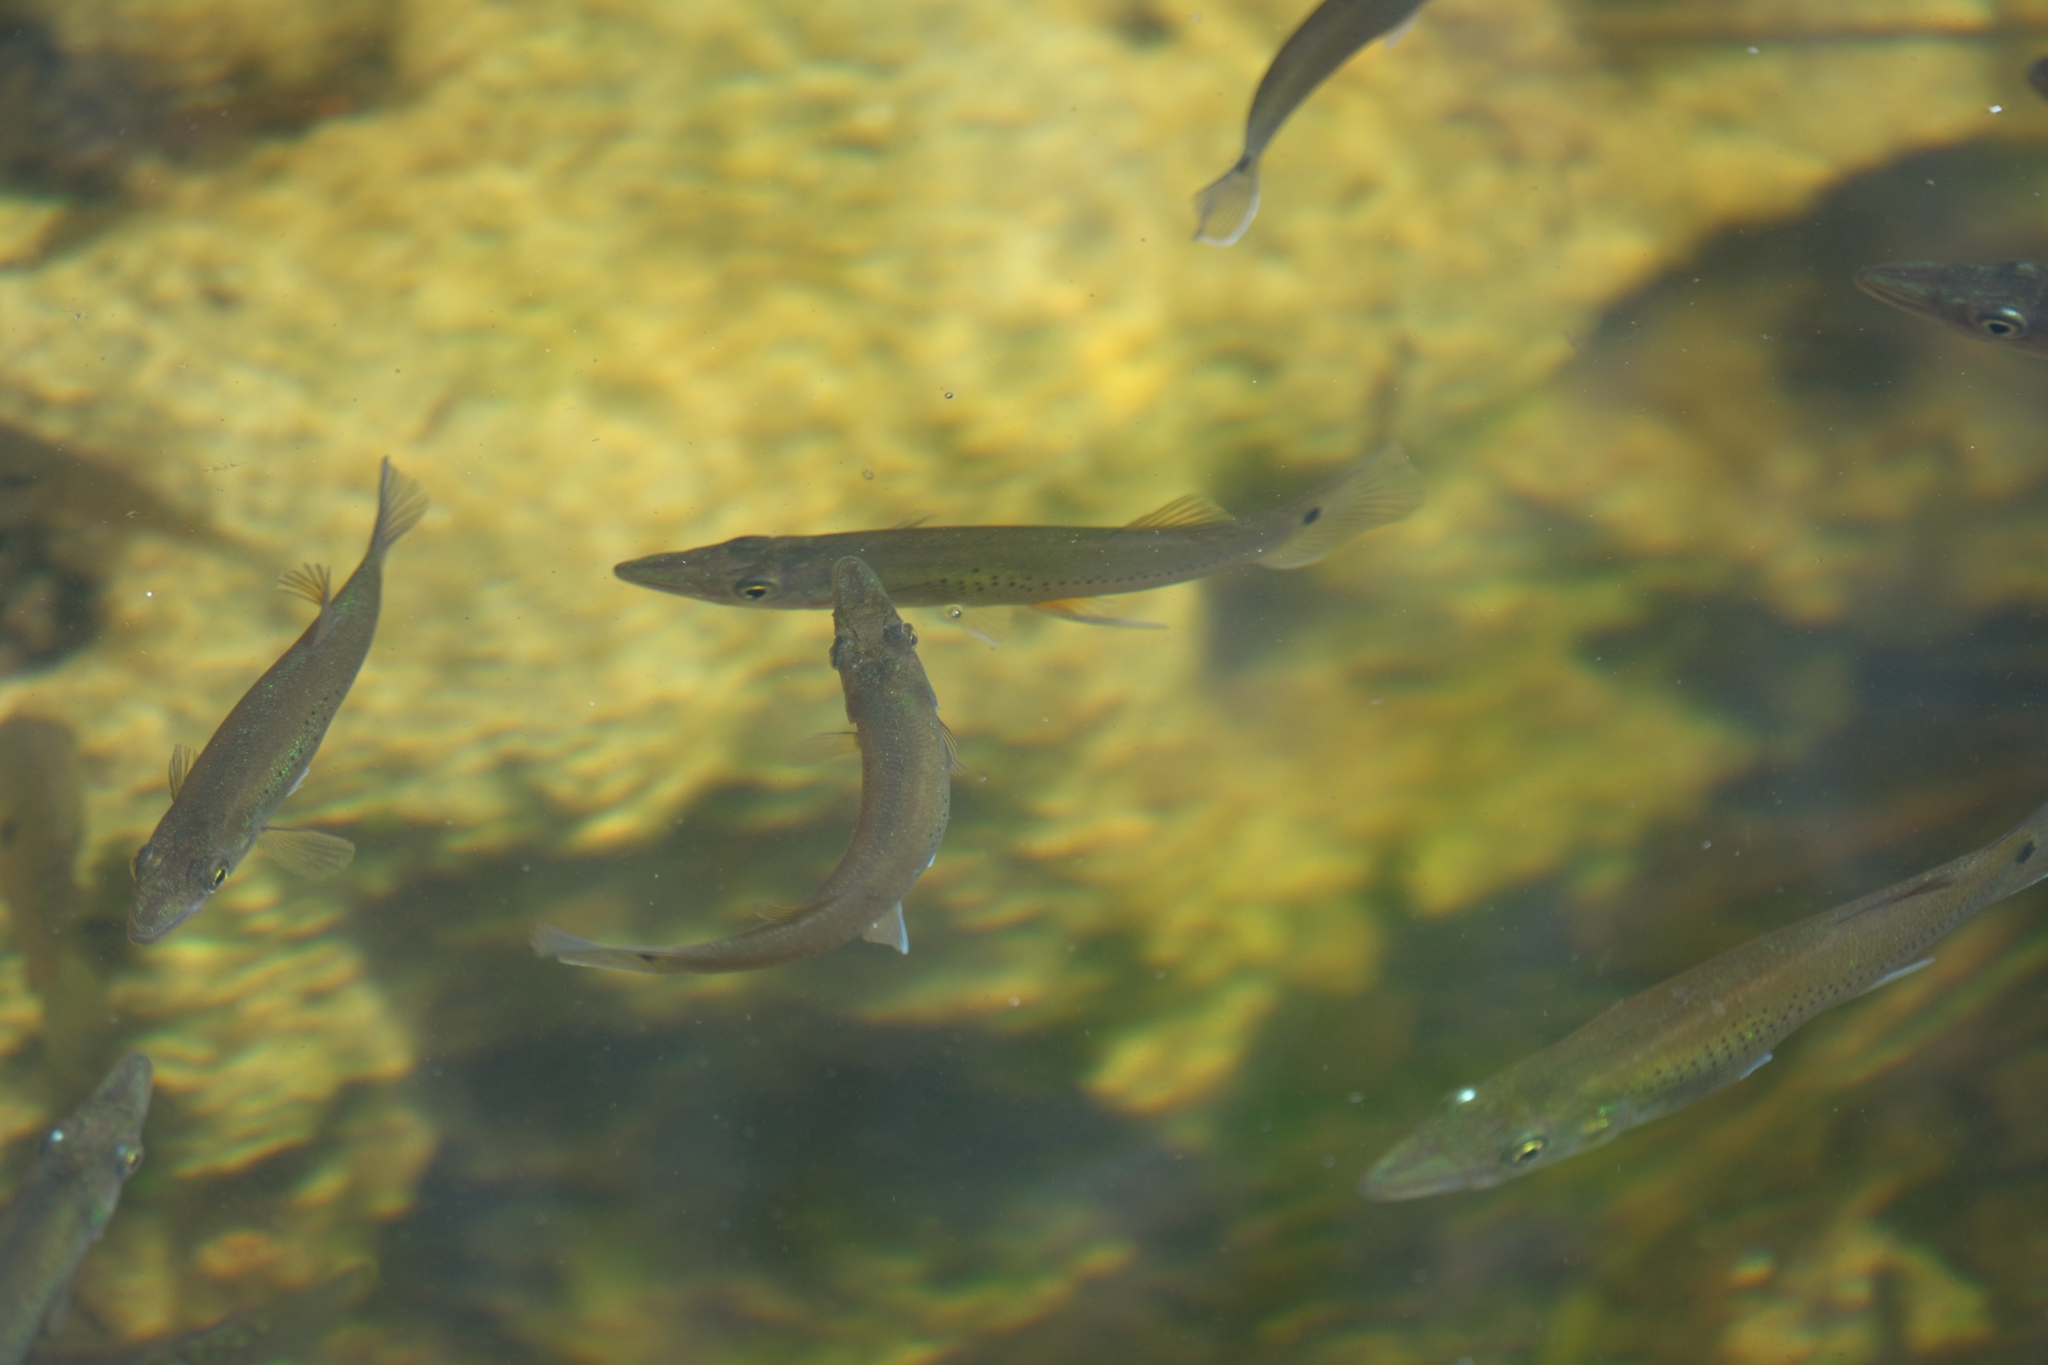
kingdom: Animalia
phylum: Chordata
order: Cyprinodontiformes
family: Poeciliidae
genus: Belonesox
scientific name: Belonesox belizanus
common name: Pike killifish
